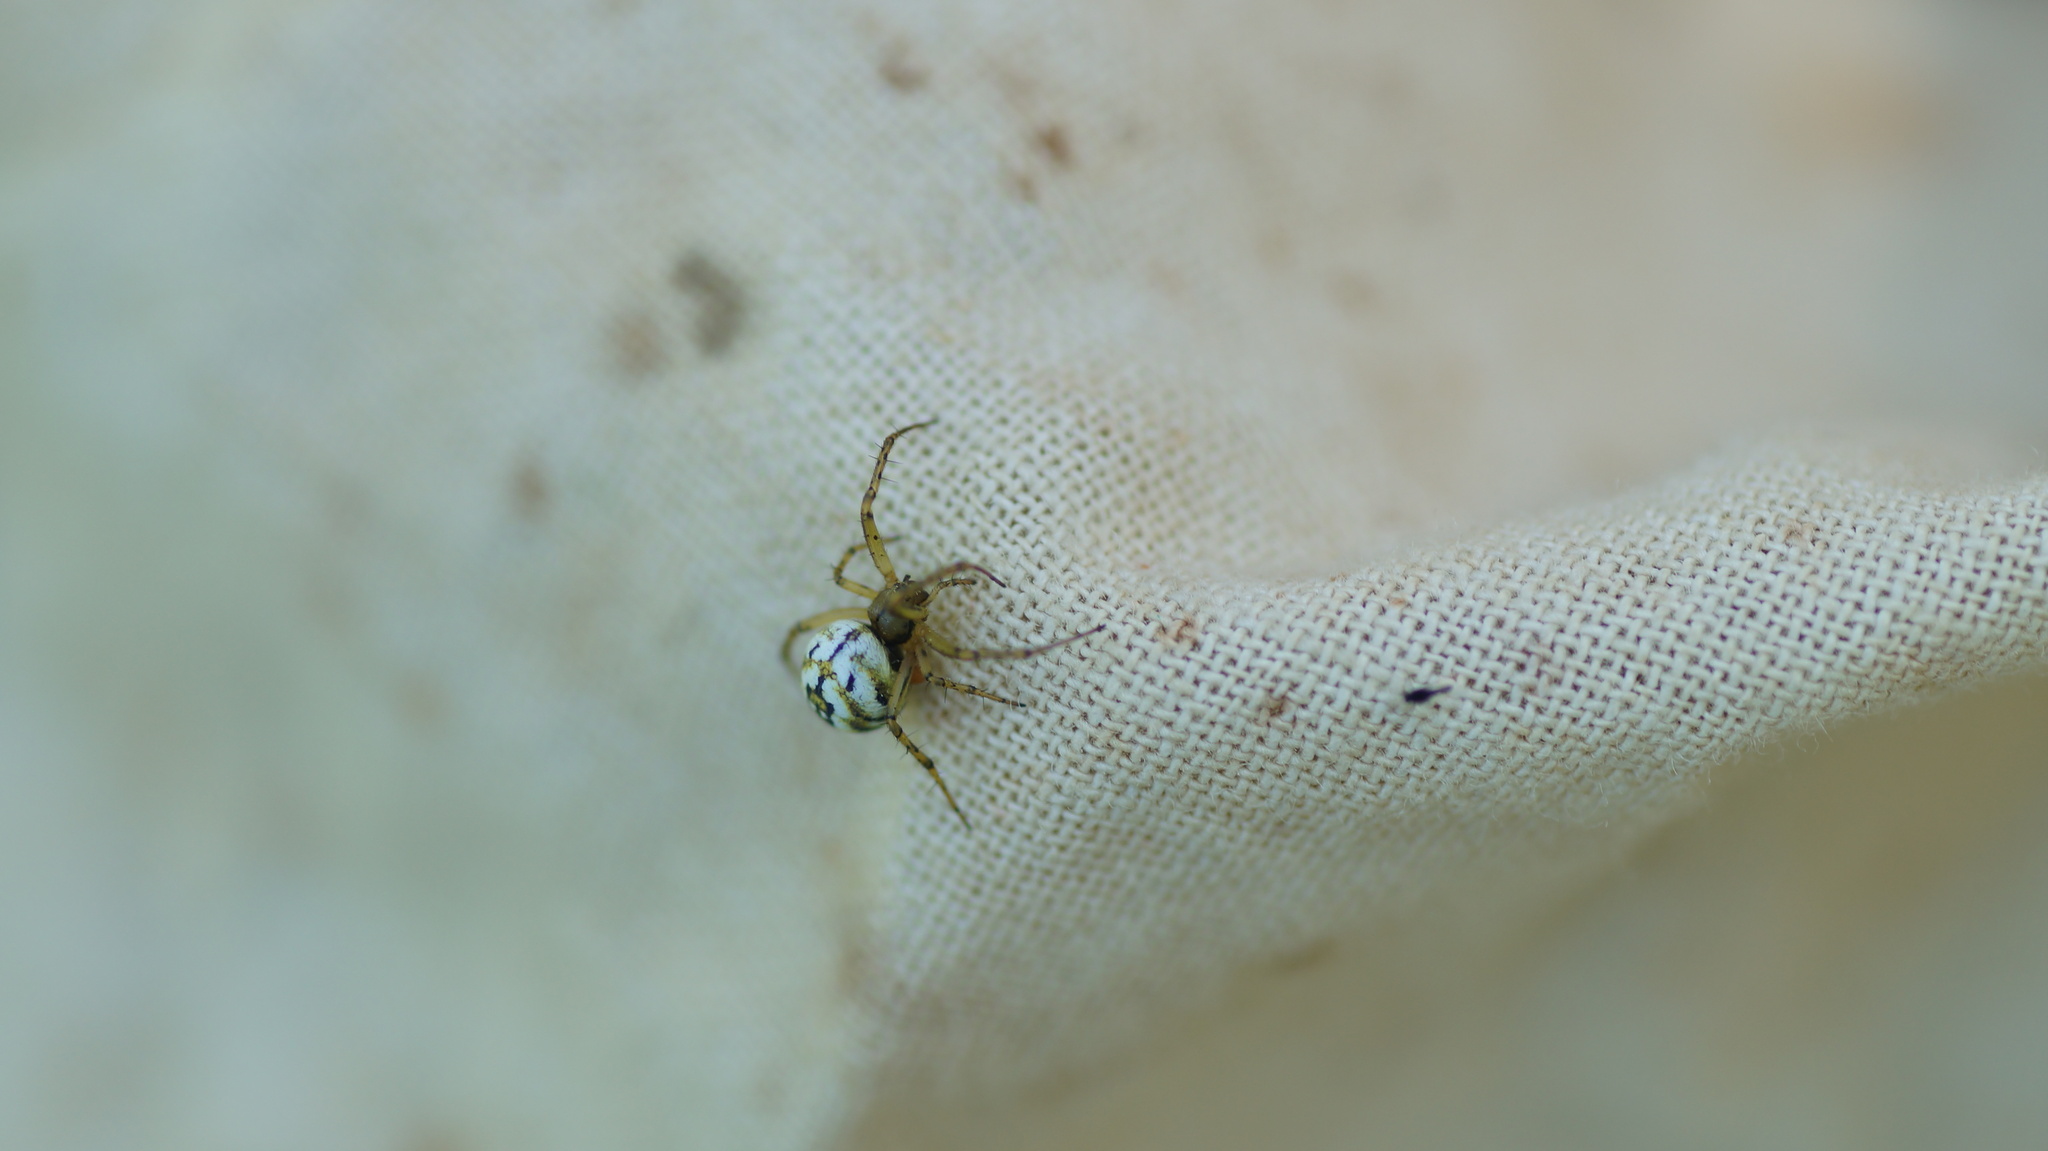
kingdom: Animalia
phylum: Arthropoda
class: Arachnida
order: Araneae
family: Araneidae
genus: Mangora
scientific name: Mangora acalypha
